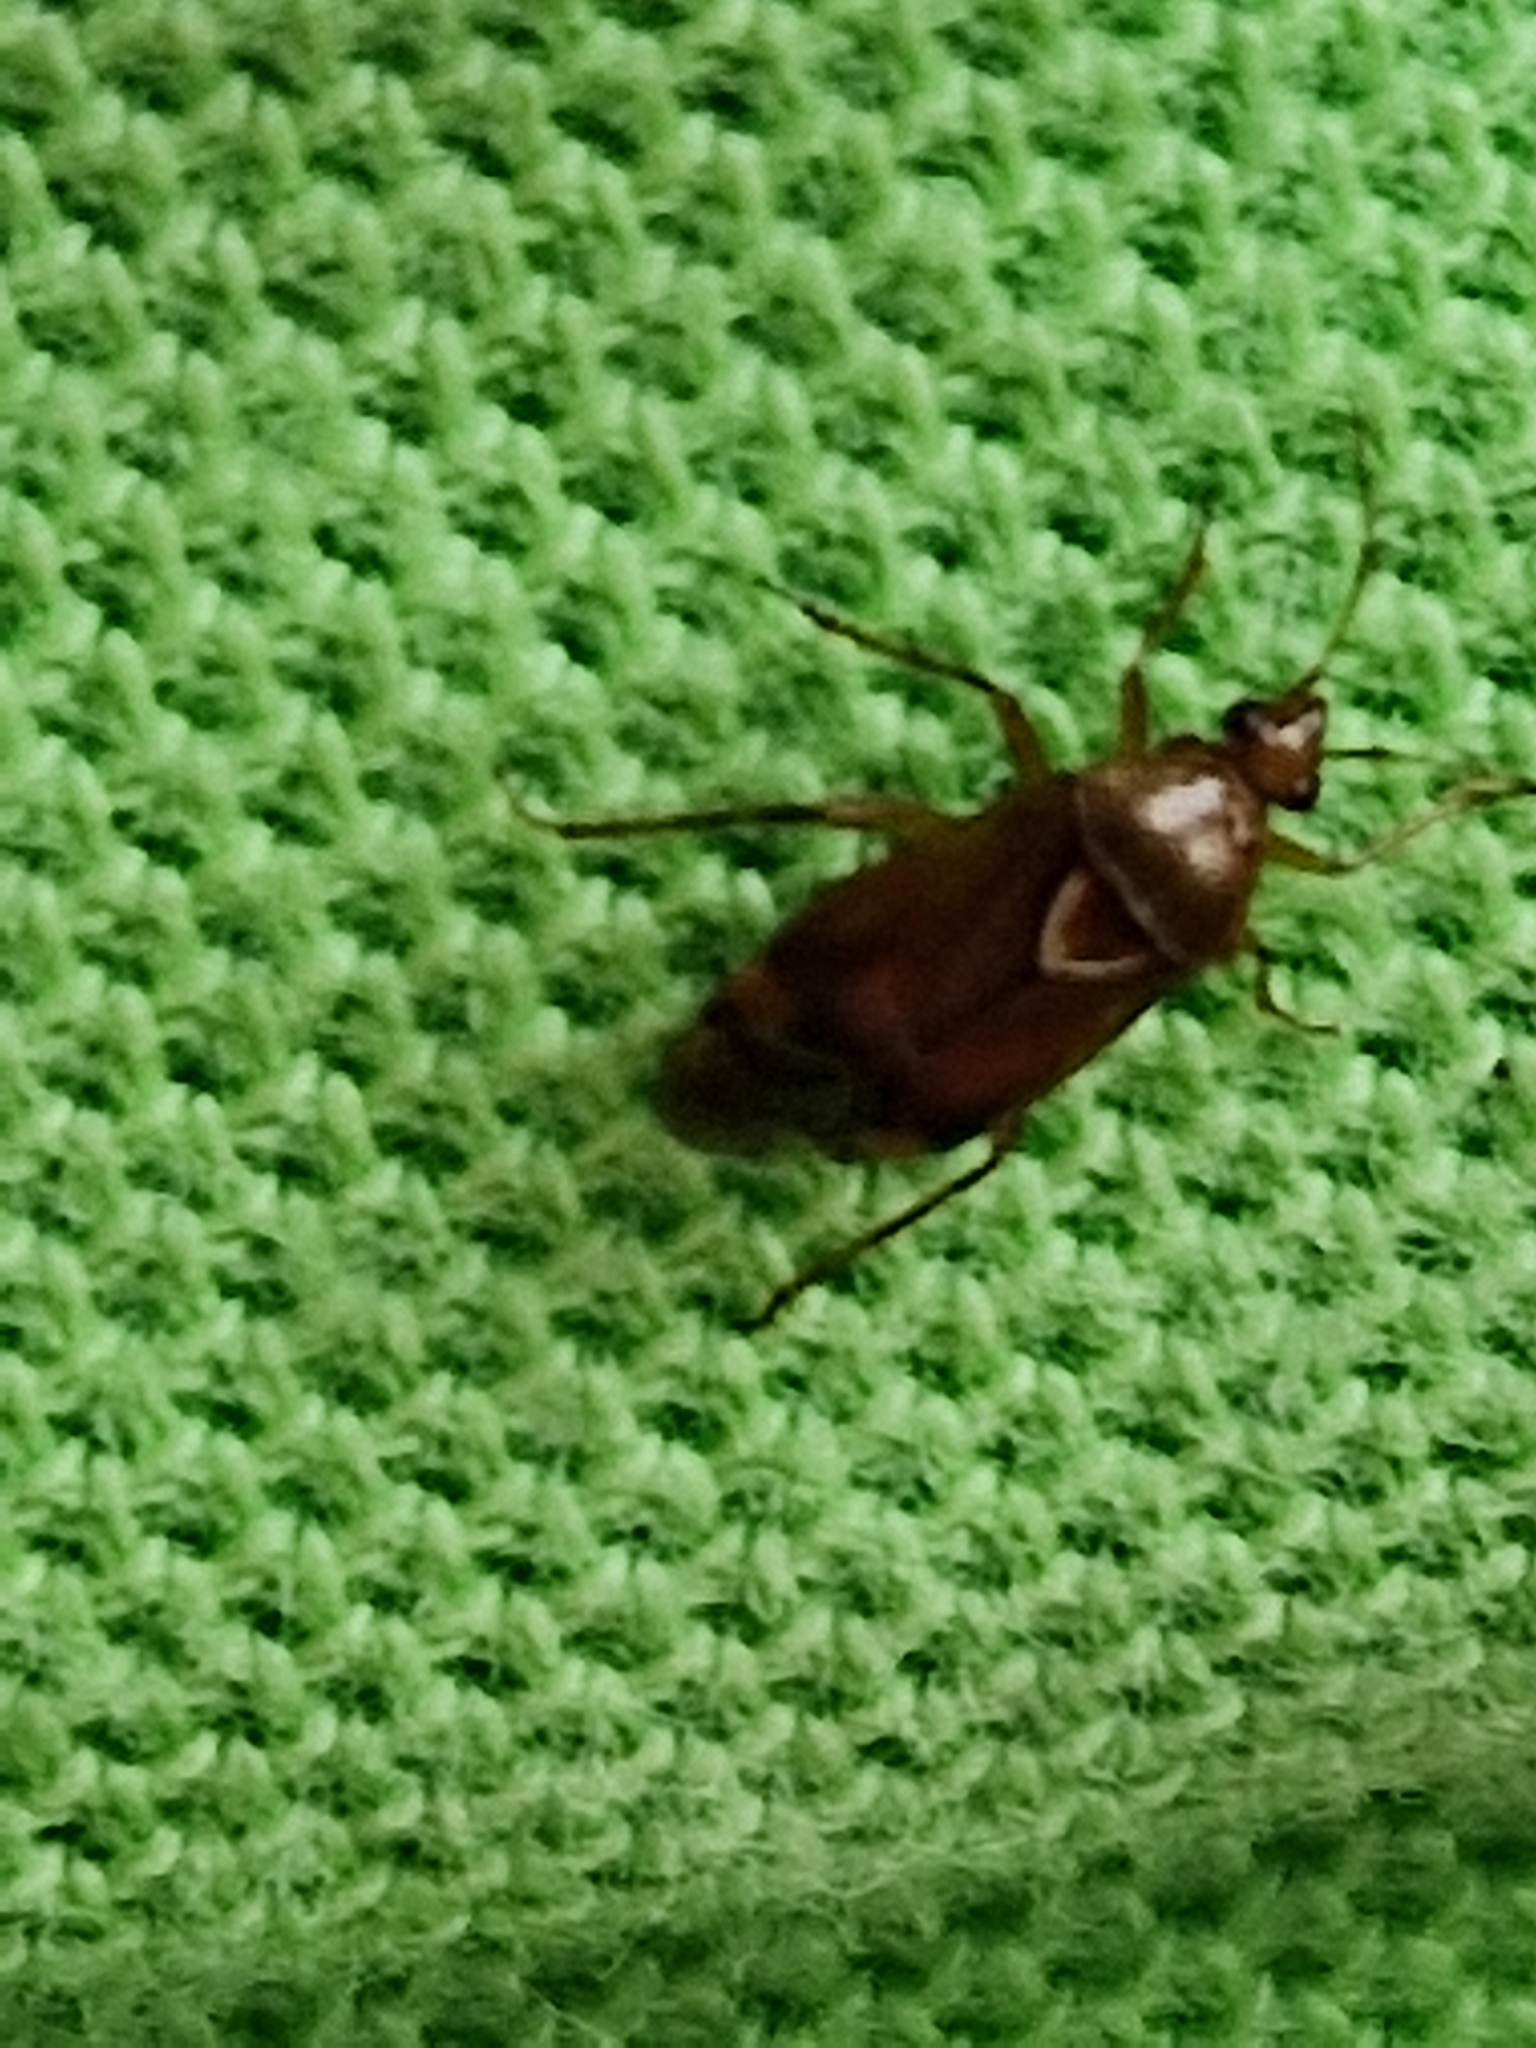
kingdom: Animalia
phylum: Arthropoda
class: Insecta
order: Hemiptera
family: Miridae
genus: Deraeocoris
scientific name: Deraeocoris flavilinea
